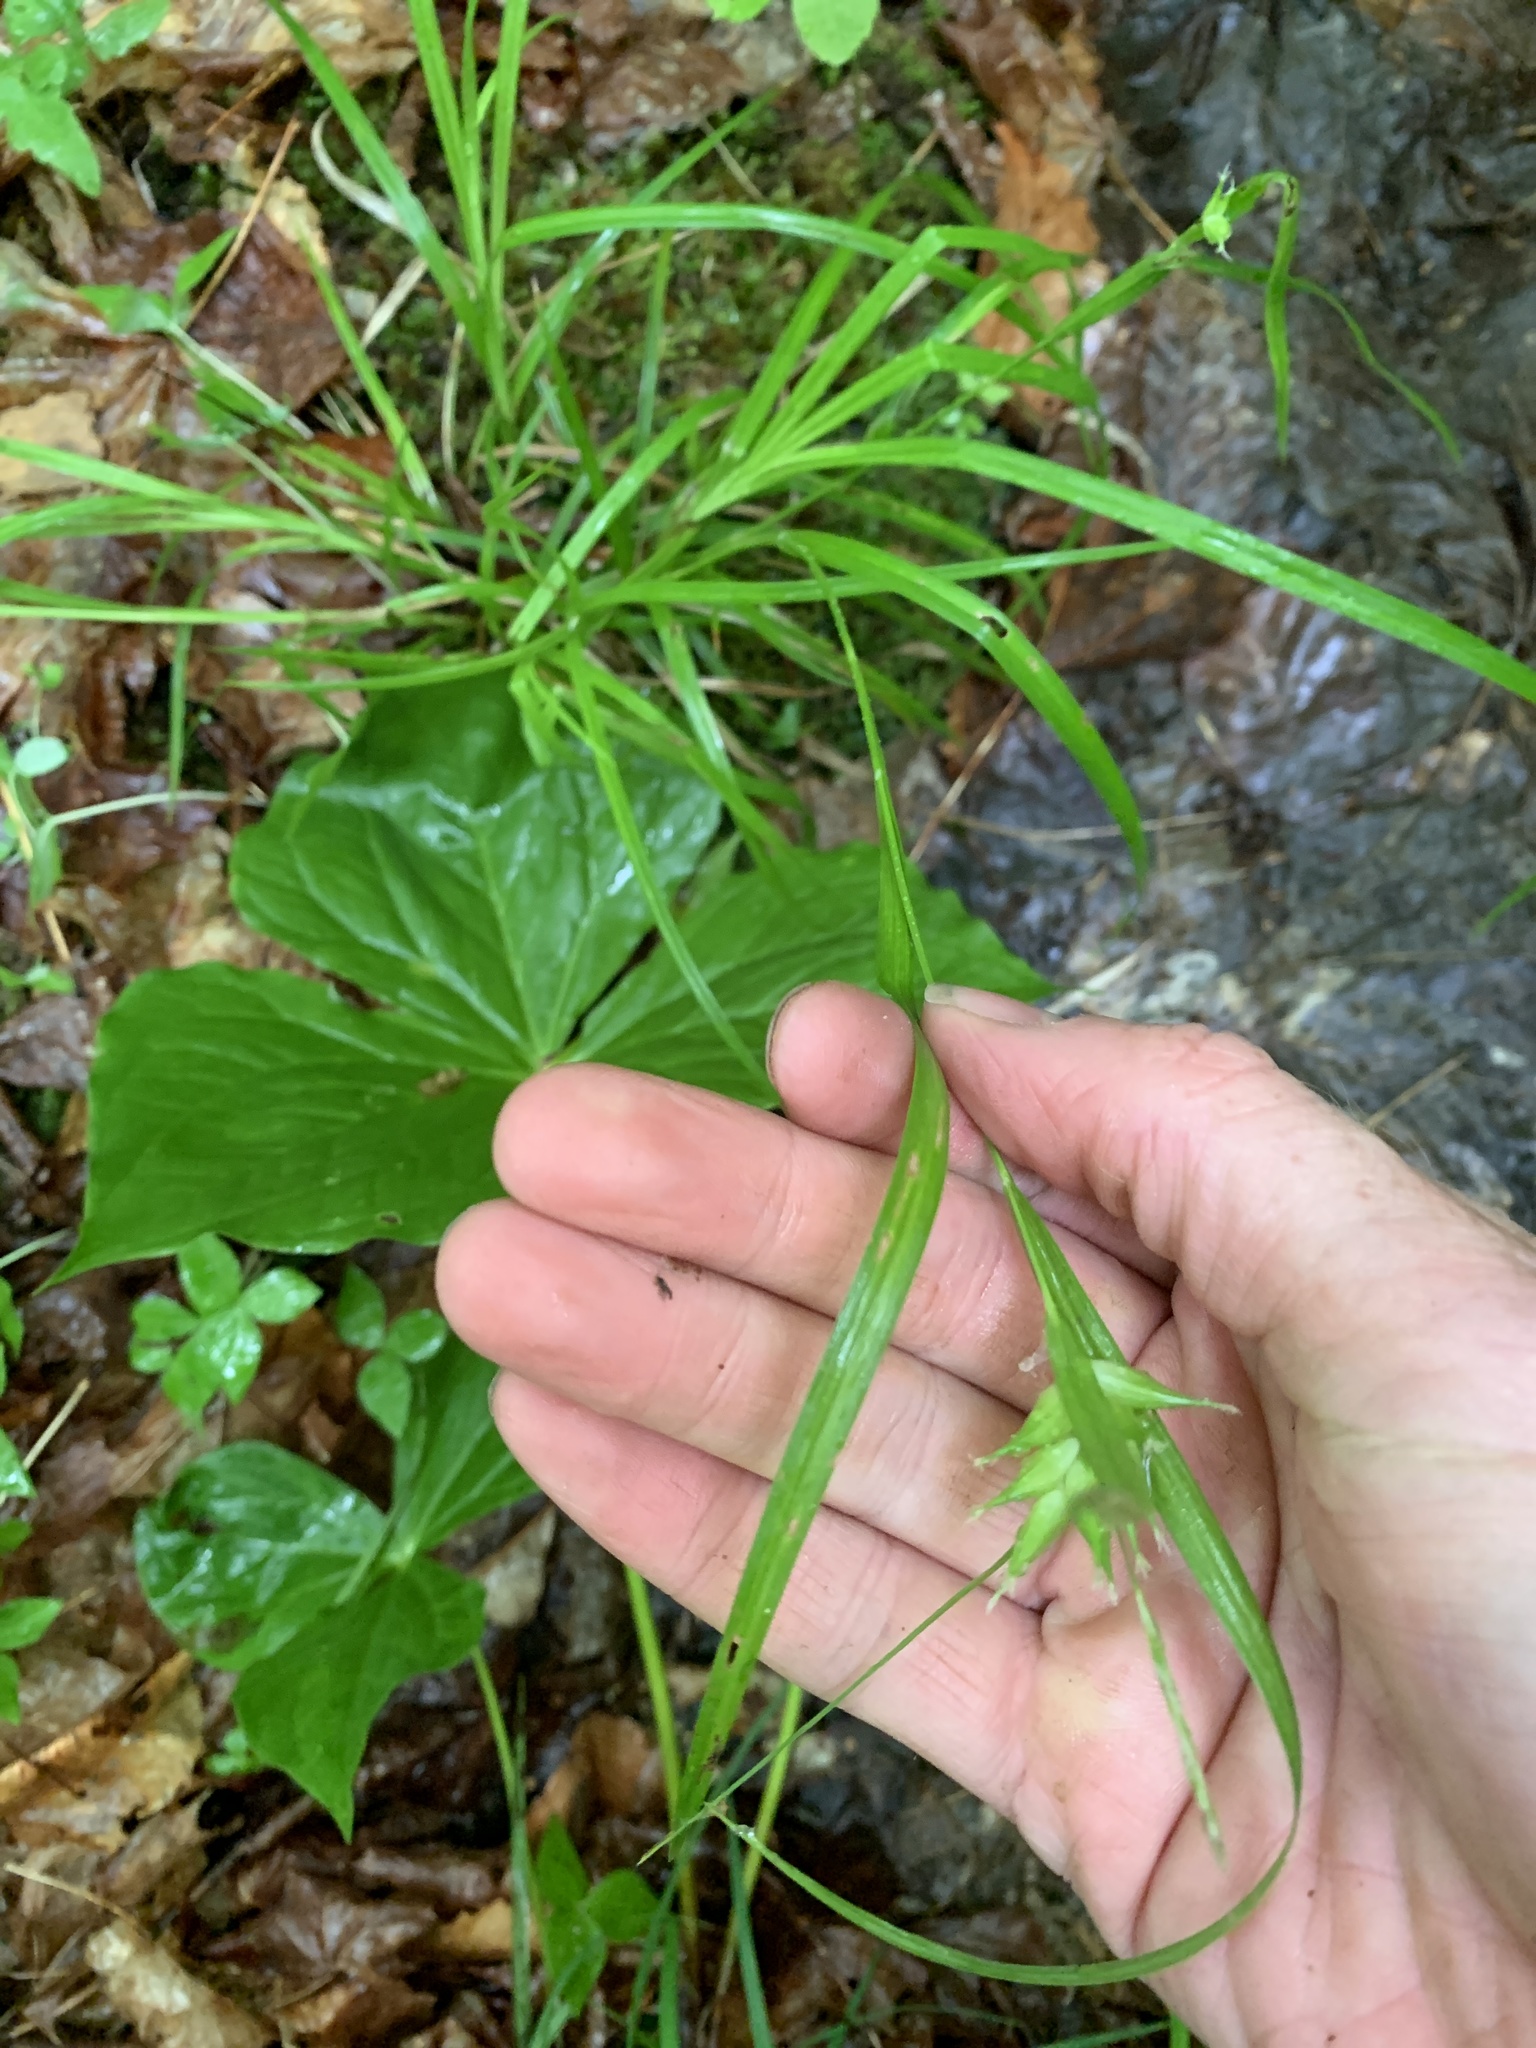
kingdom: Plantae
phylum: Tracheophyta
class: Liliopsida
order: Poales
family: Cyperaceae
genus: Carex
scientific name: Carex intumescens
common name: Greater bladder sedge
